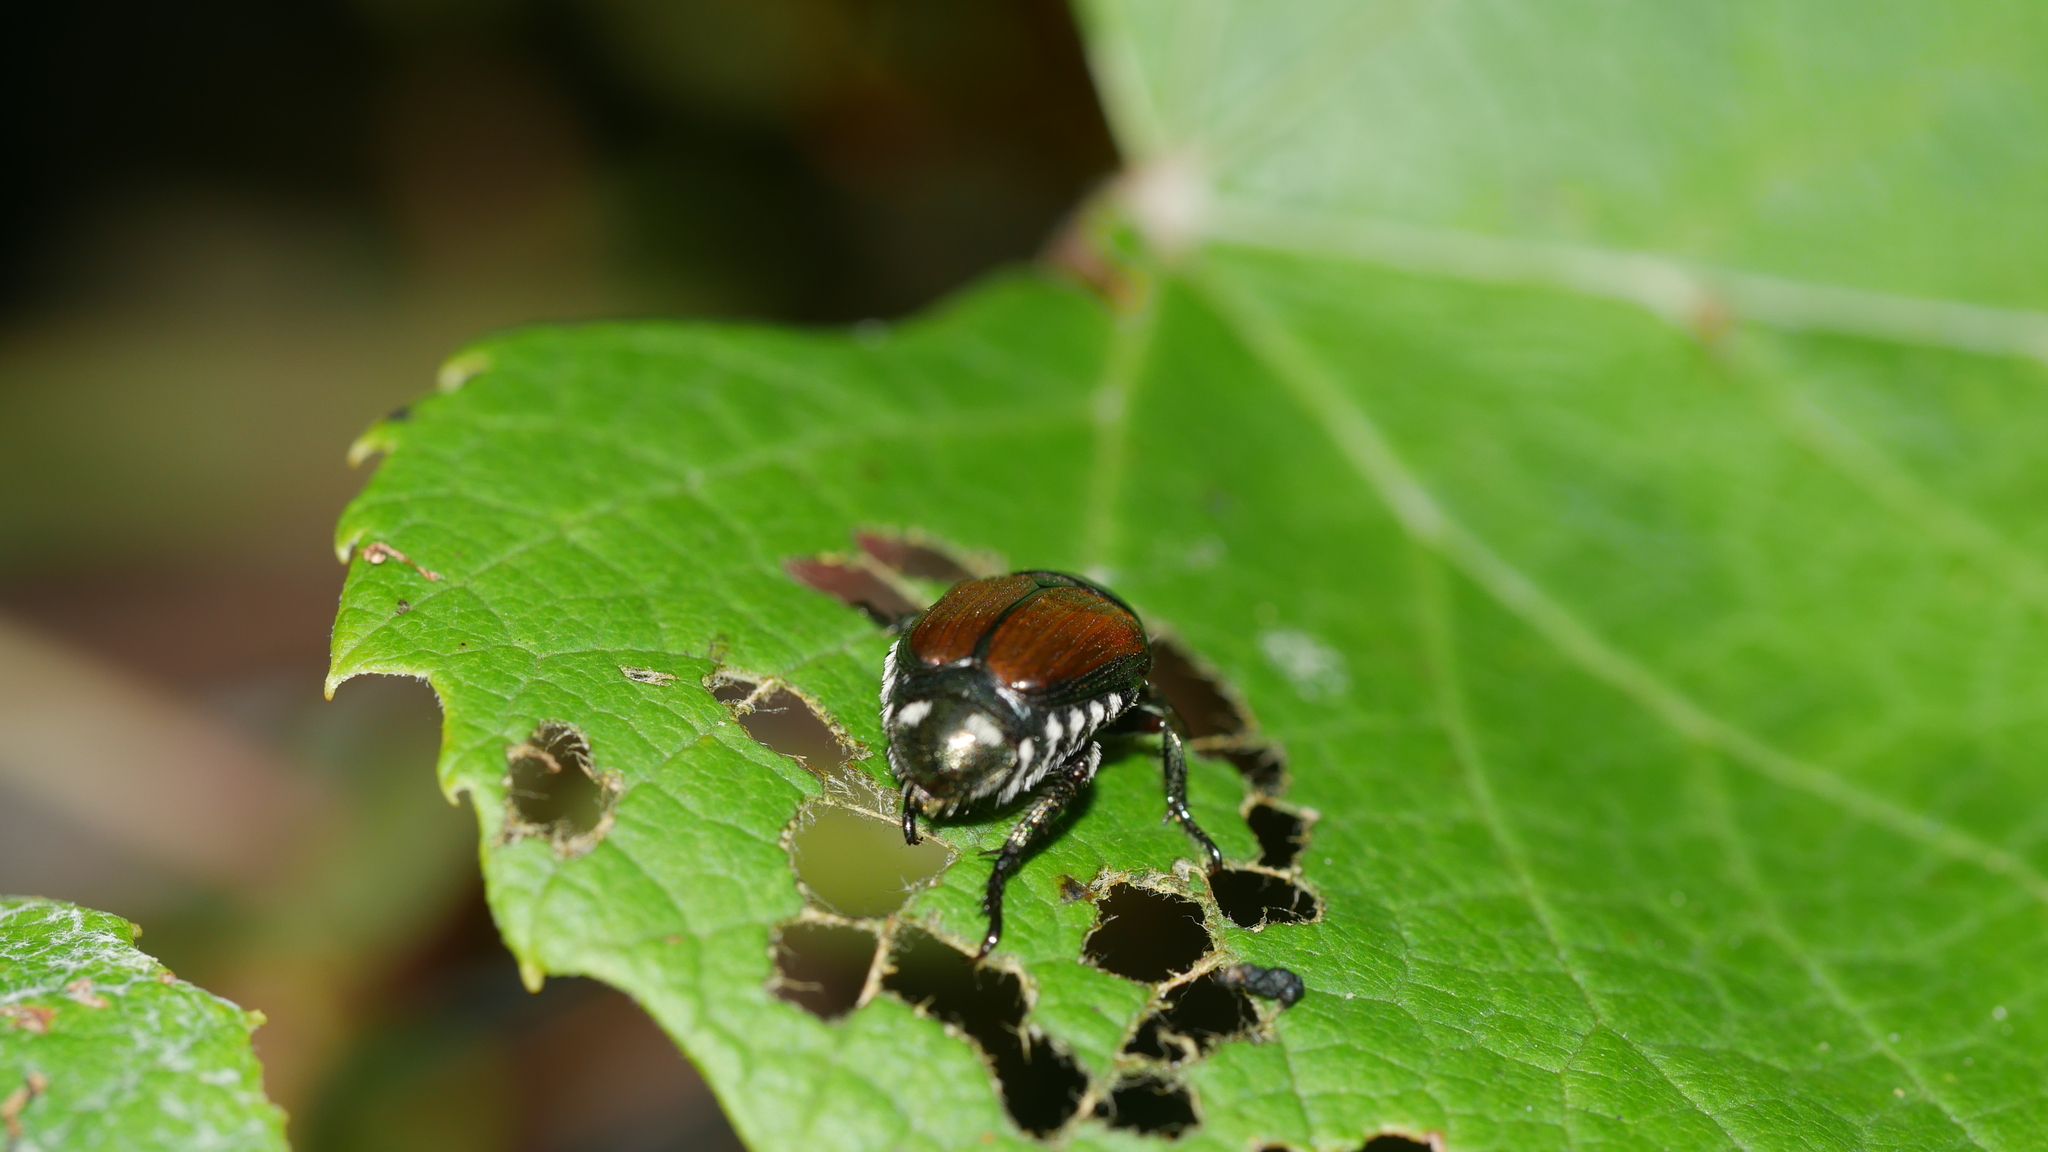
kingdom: Animalia
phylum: Arthropoda
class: Insecta
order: Coleoptera
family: Scarabaeidae
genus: Popillia
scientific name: Popillia japonica
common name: Japanese beetle
